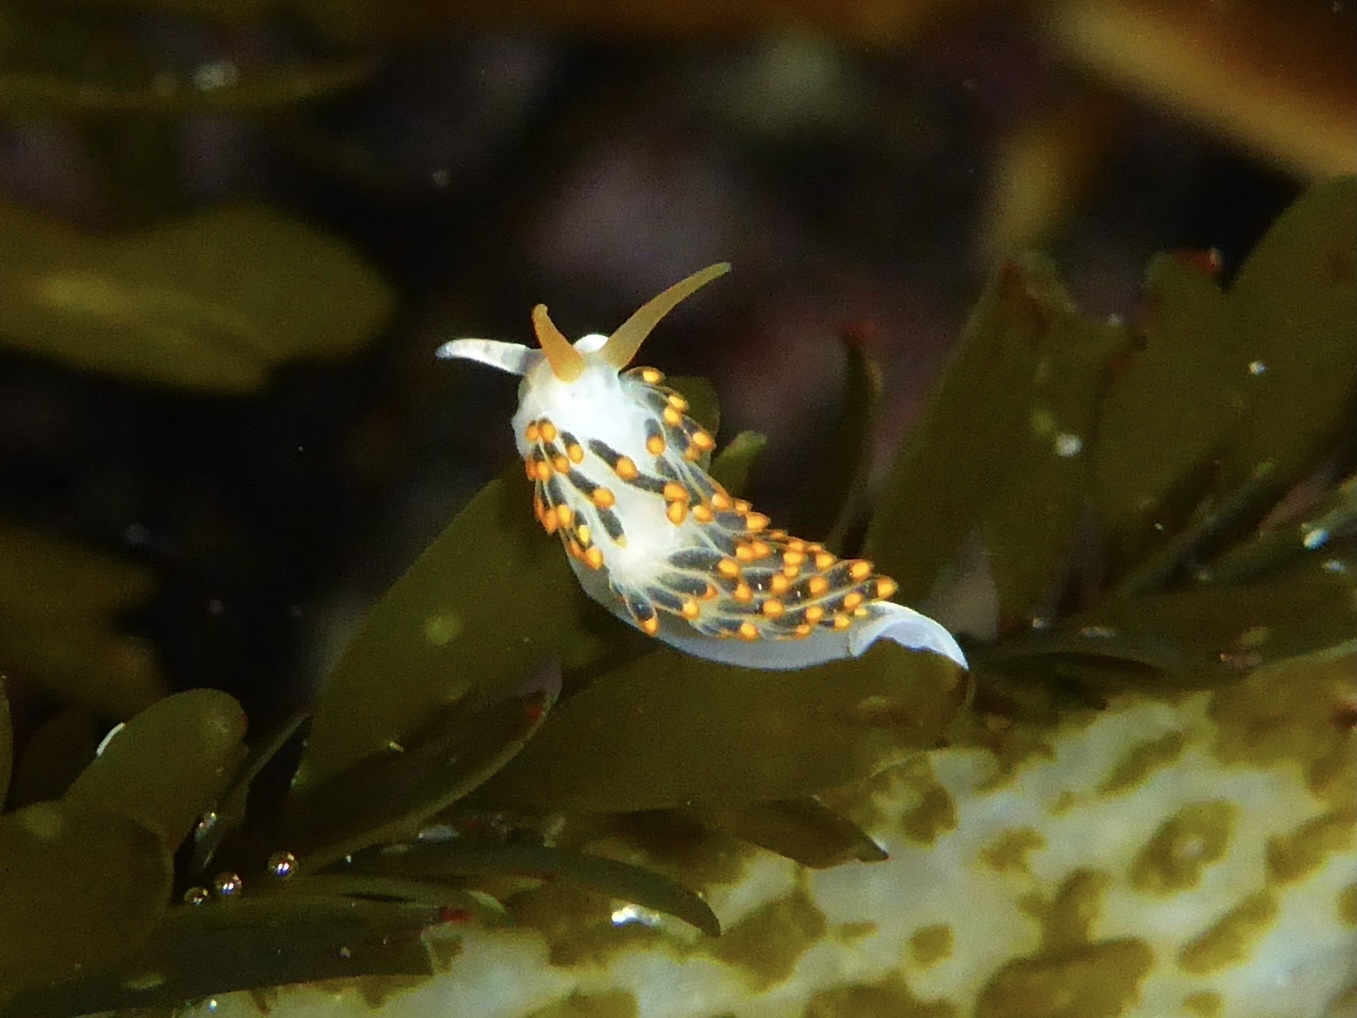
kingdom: Animalia
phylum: Mollusca
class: Gastropoda
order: Nudibranchia
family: Trinchesiidae
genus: Diaphoreolis
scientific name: Diaphoreolis lagunae
